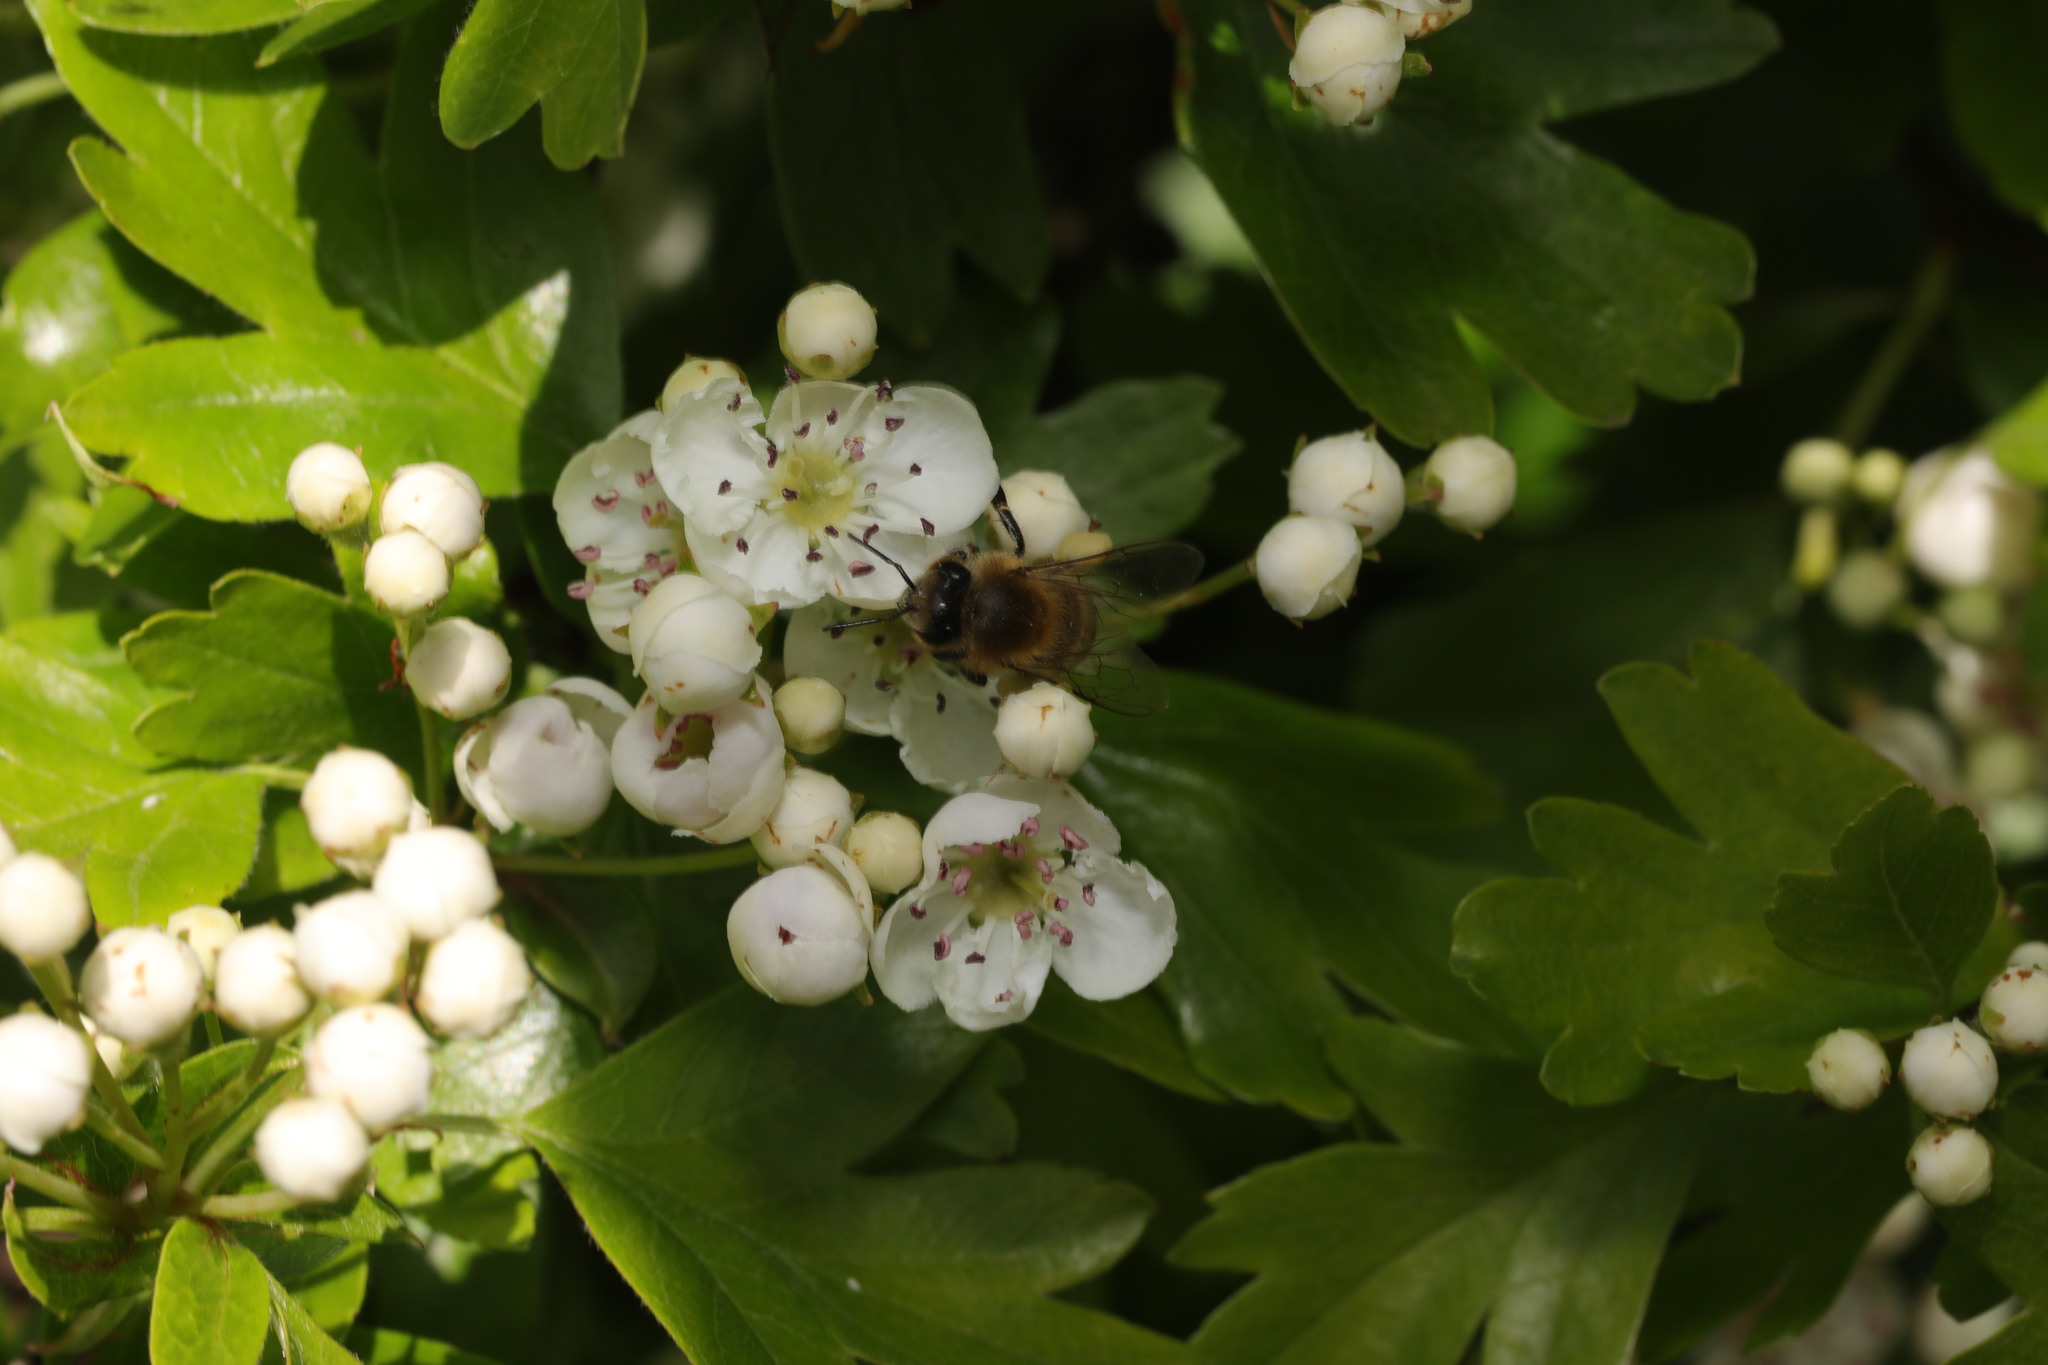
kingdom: Animalia
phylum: Arthropoda
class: Insecta
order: Hymenoptera
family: Apidae
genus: Apis
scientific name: Apis mellifera
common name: Honey bee
